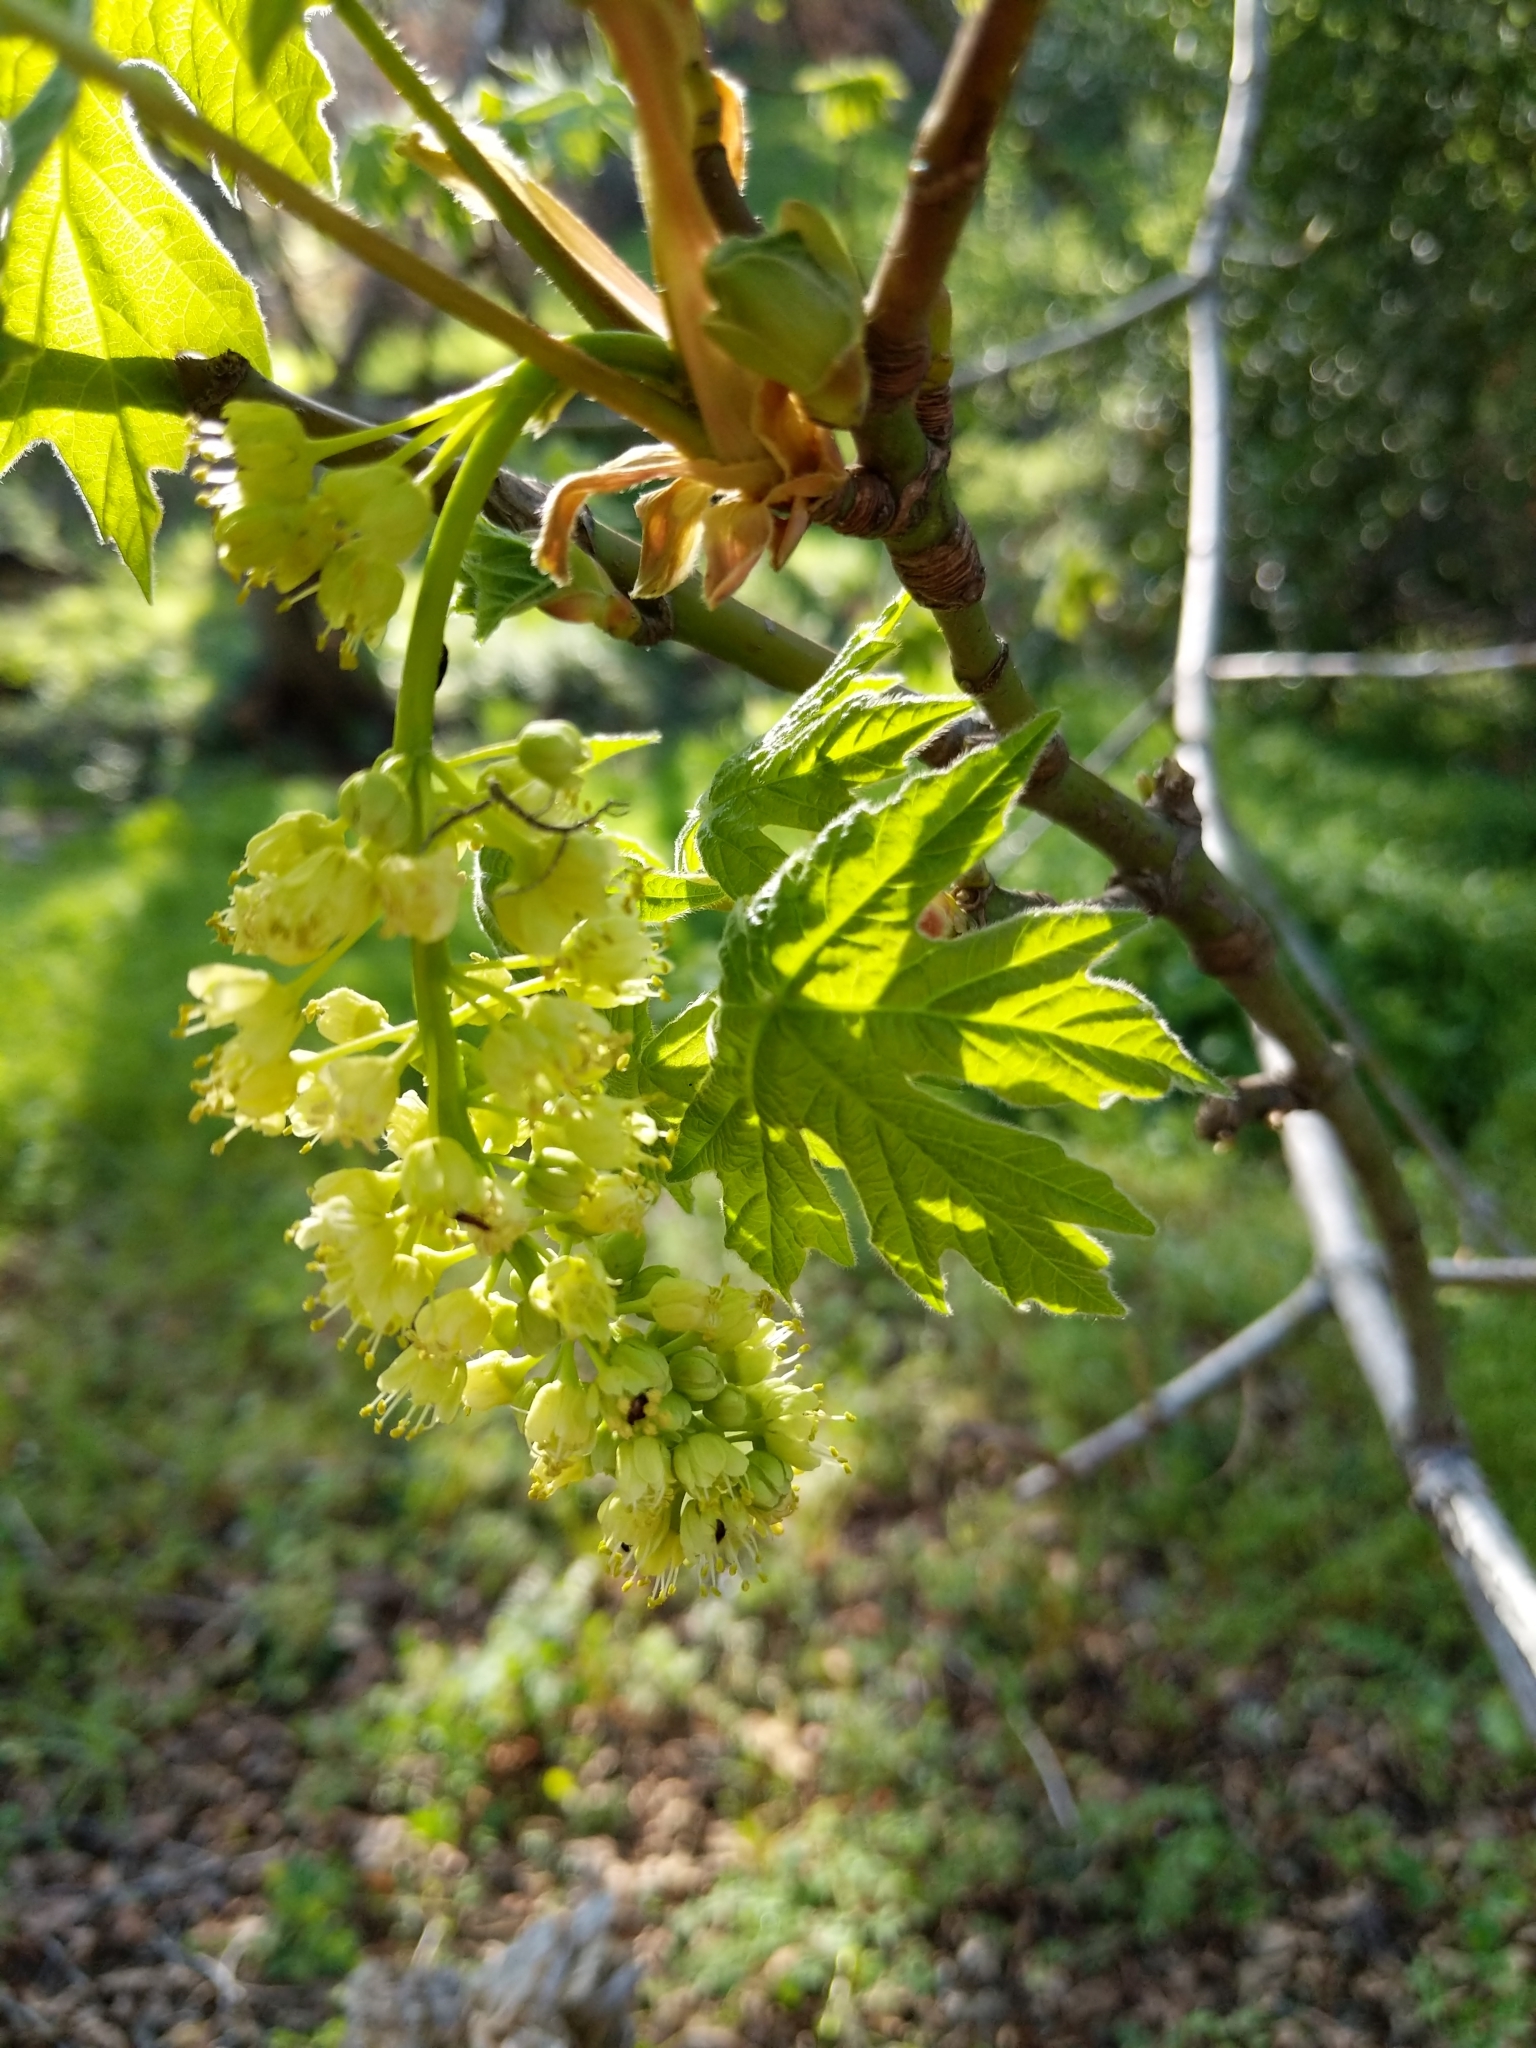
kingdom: Plantae
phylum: Tracheophyta
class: Magnoliopsida
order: Sapindales
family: Sapindaceae
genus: Acer
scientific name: Acer macrophyllum
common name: Oregon maple
